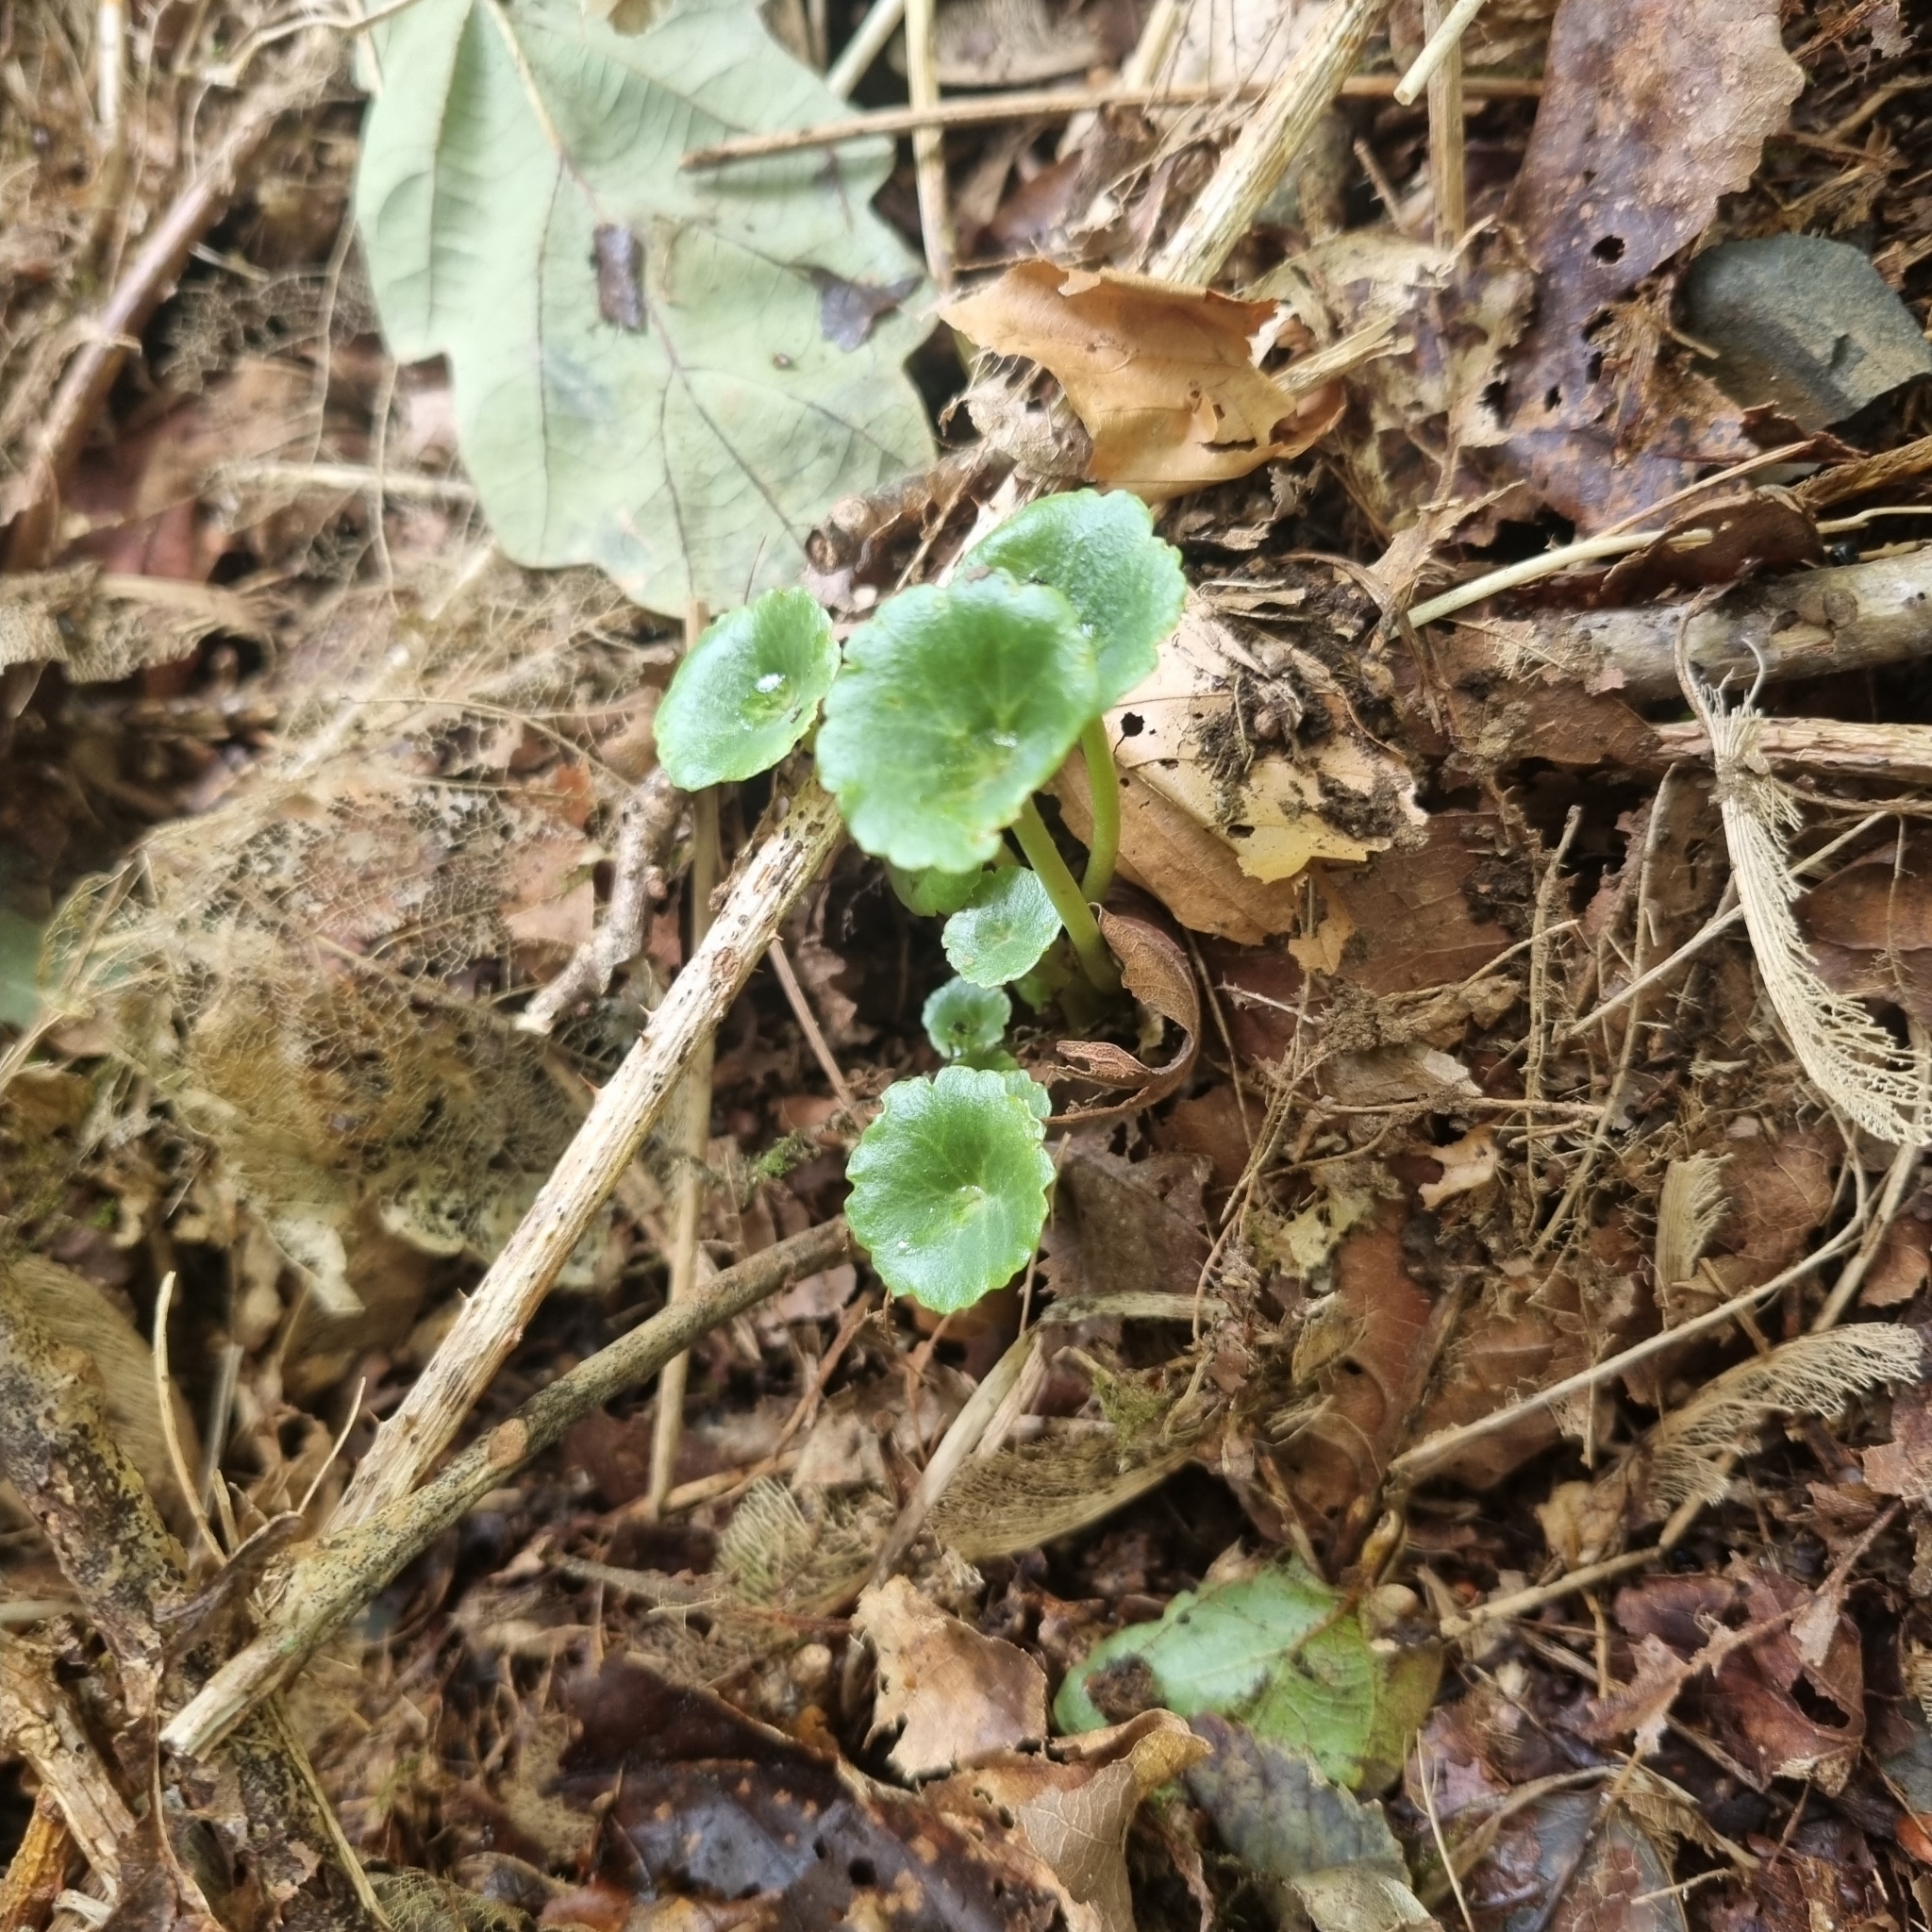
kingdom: Plantae
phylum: Tracheophyta
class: Magnoliopsida
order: Saxifragales
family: Crassulaceae
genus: Umbilicus
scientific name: Umbilicus rupestris
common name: Navelwort
